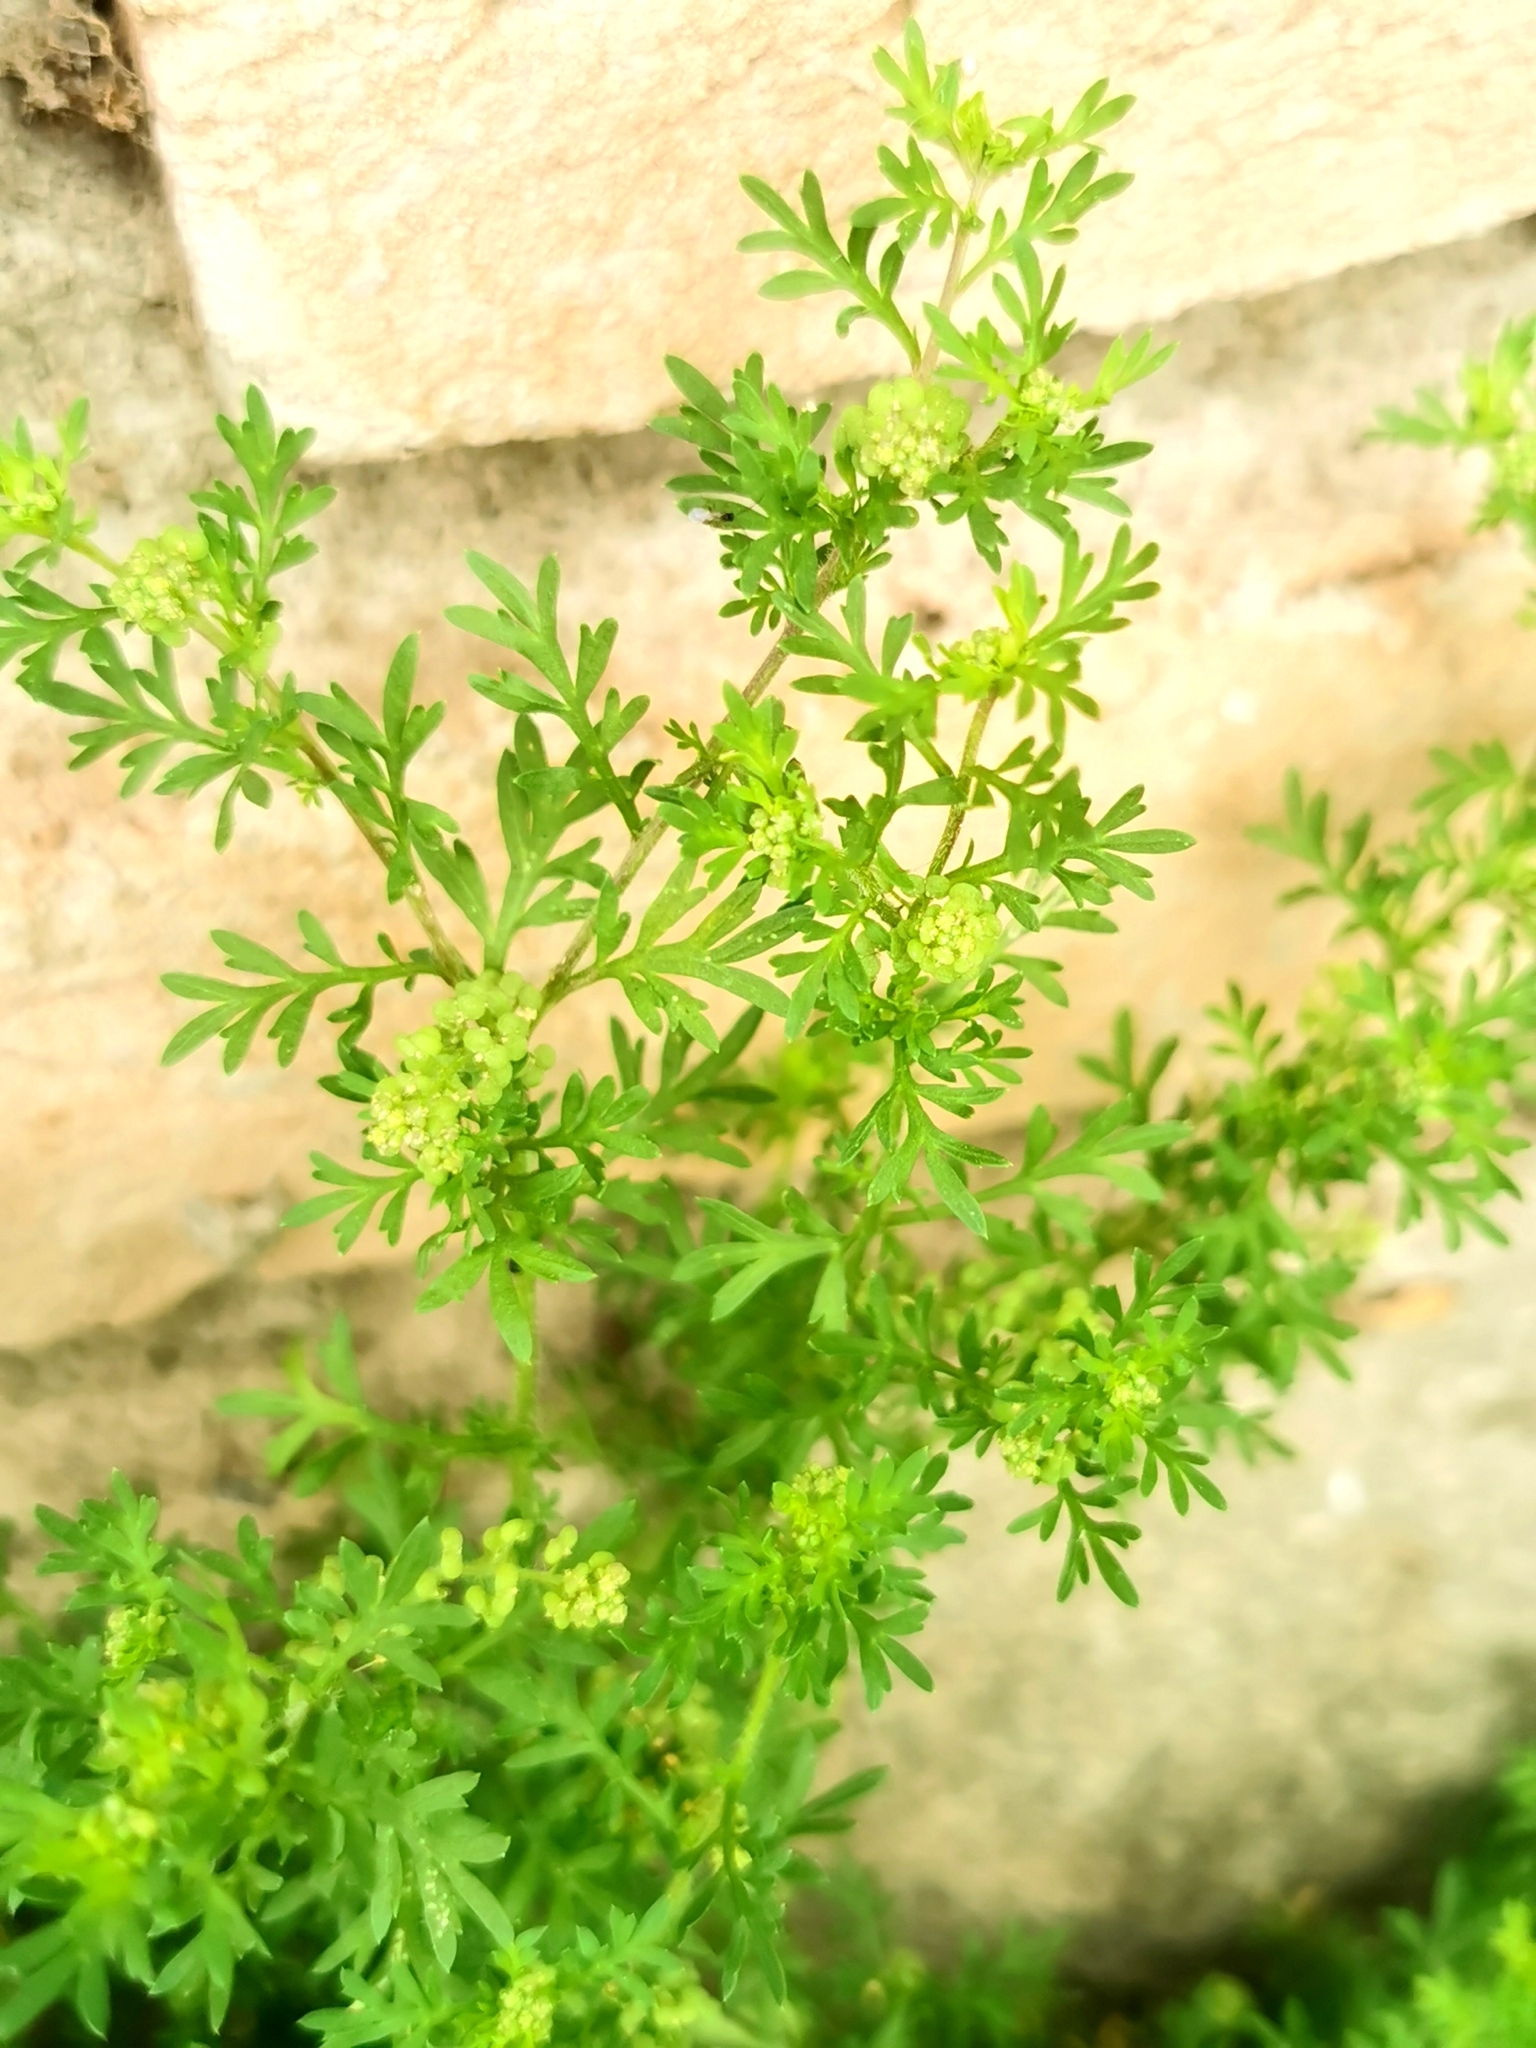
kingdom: Plantae
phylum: Tracheophyta
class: Magnoliopsida
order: Brassicales
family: Brassicaceae
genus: Lepidium
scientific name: Lepidium didymum
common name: Lesser swinecress
